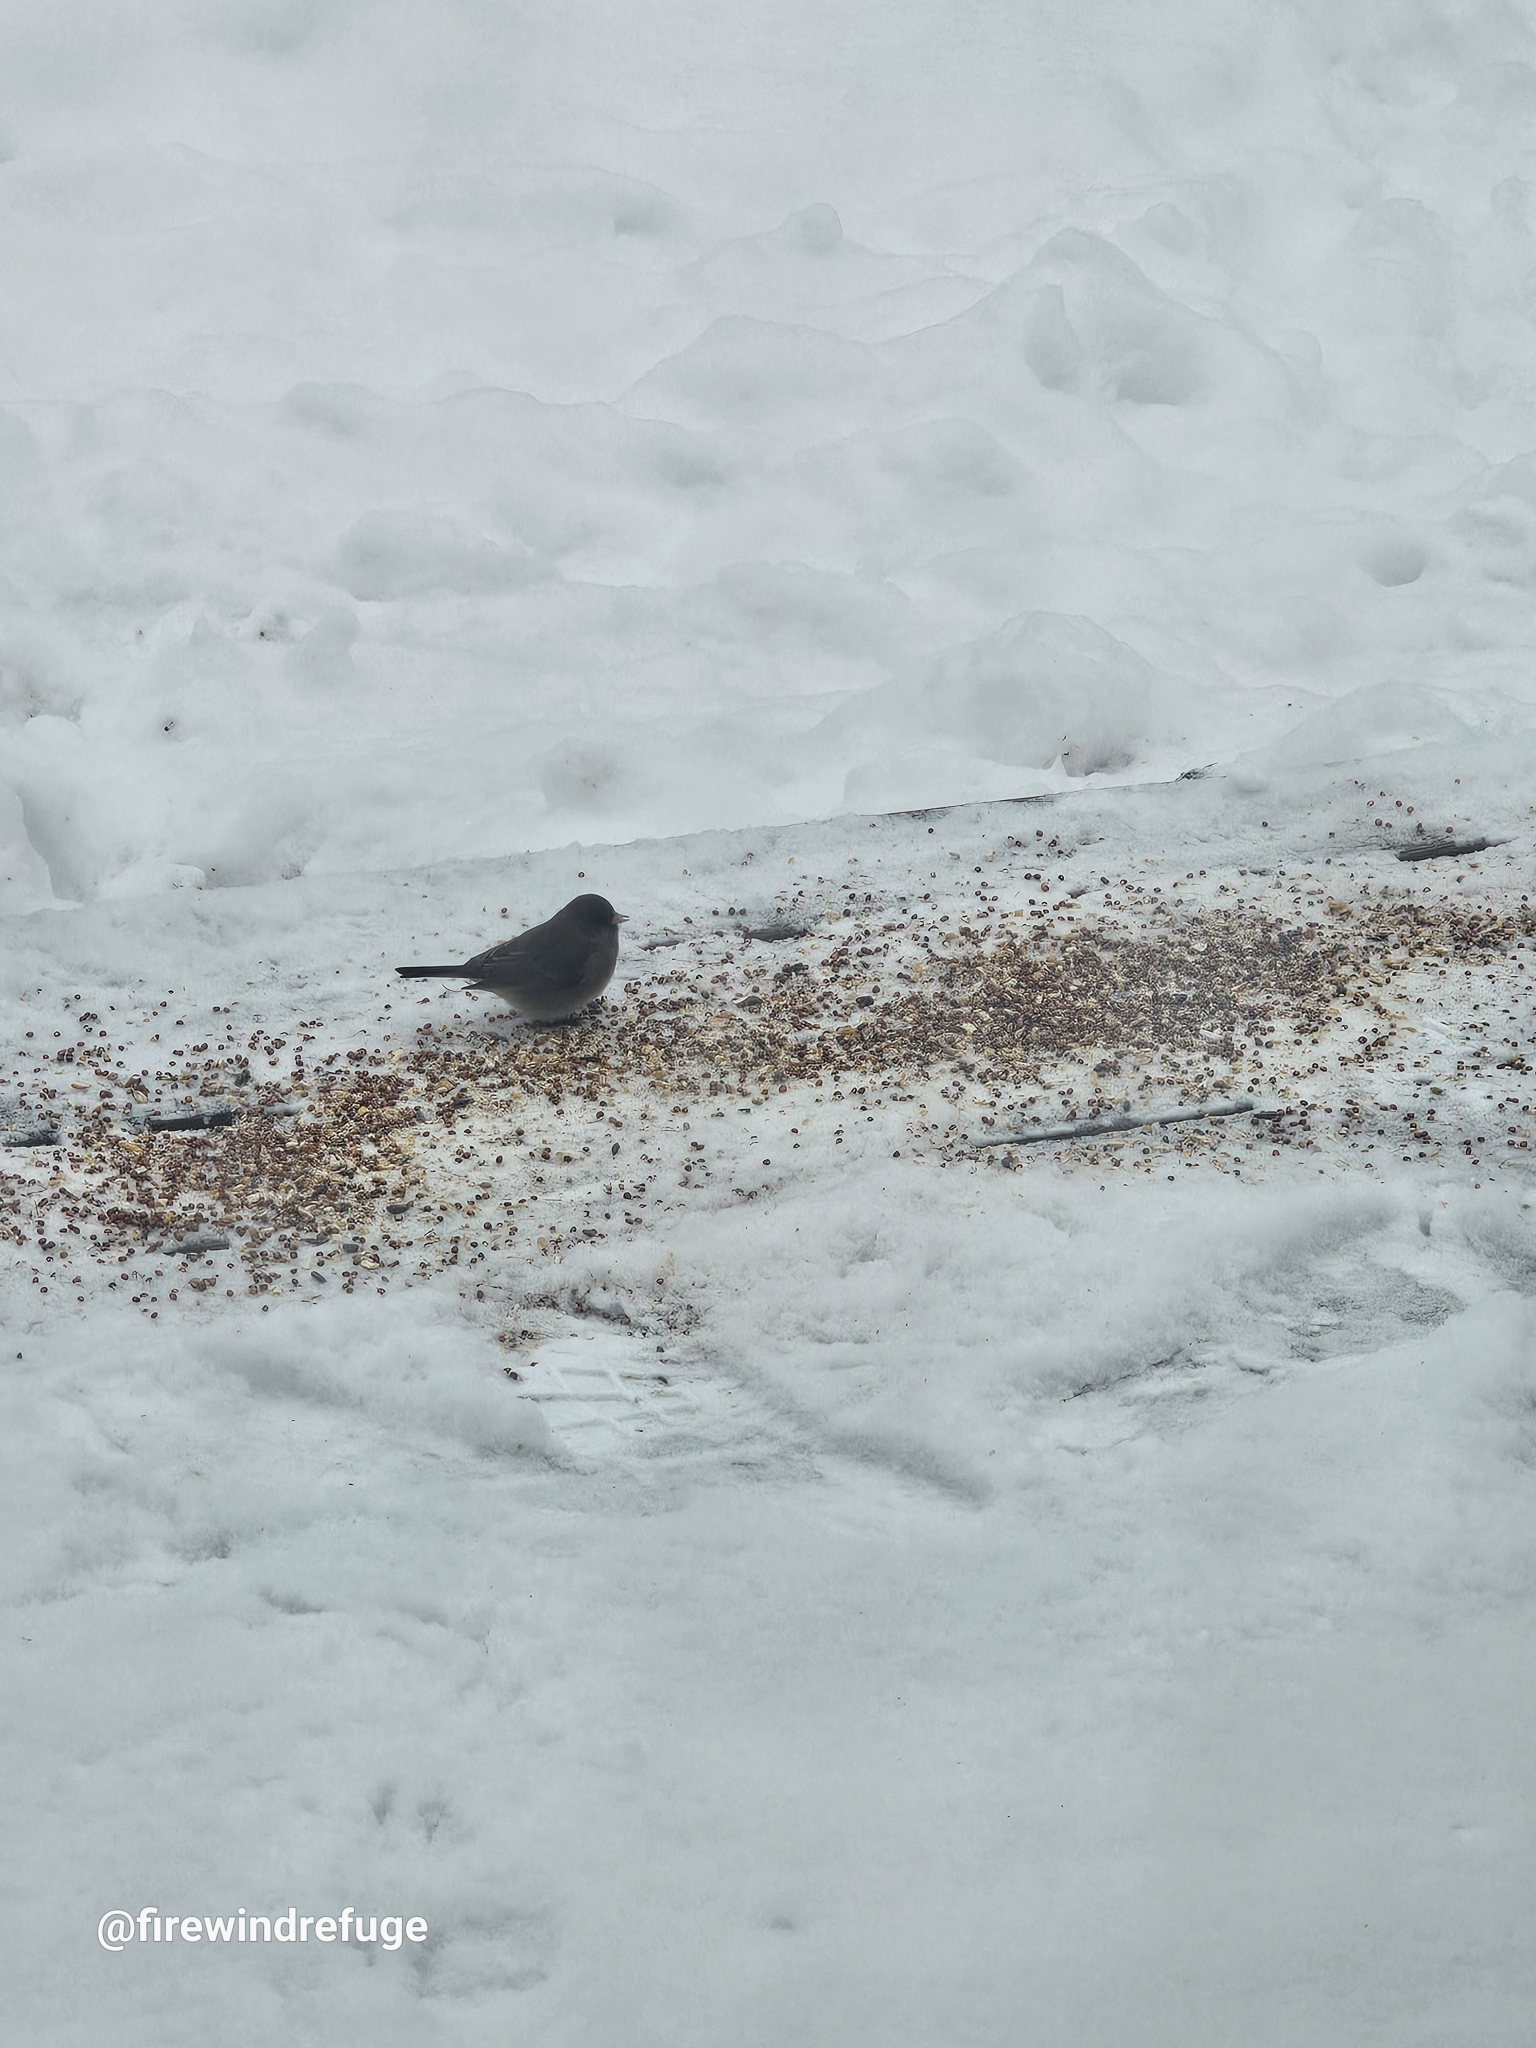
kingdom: Animalia
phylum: Chordata
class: Aves
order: Passeriformes
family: Passerellidae
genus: Junco
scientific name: Junco hyemalis
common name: Dark-eyed junco
